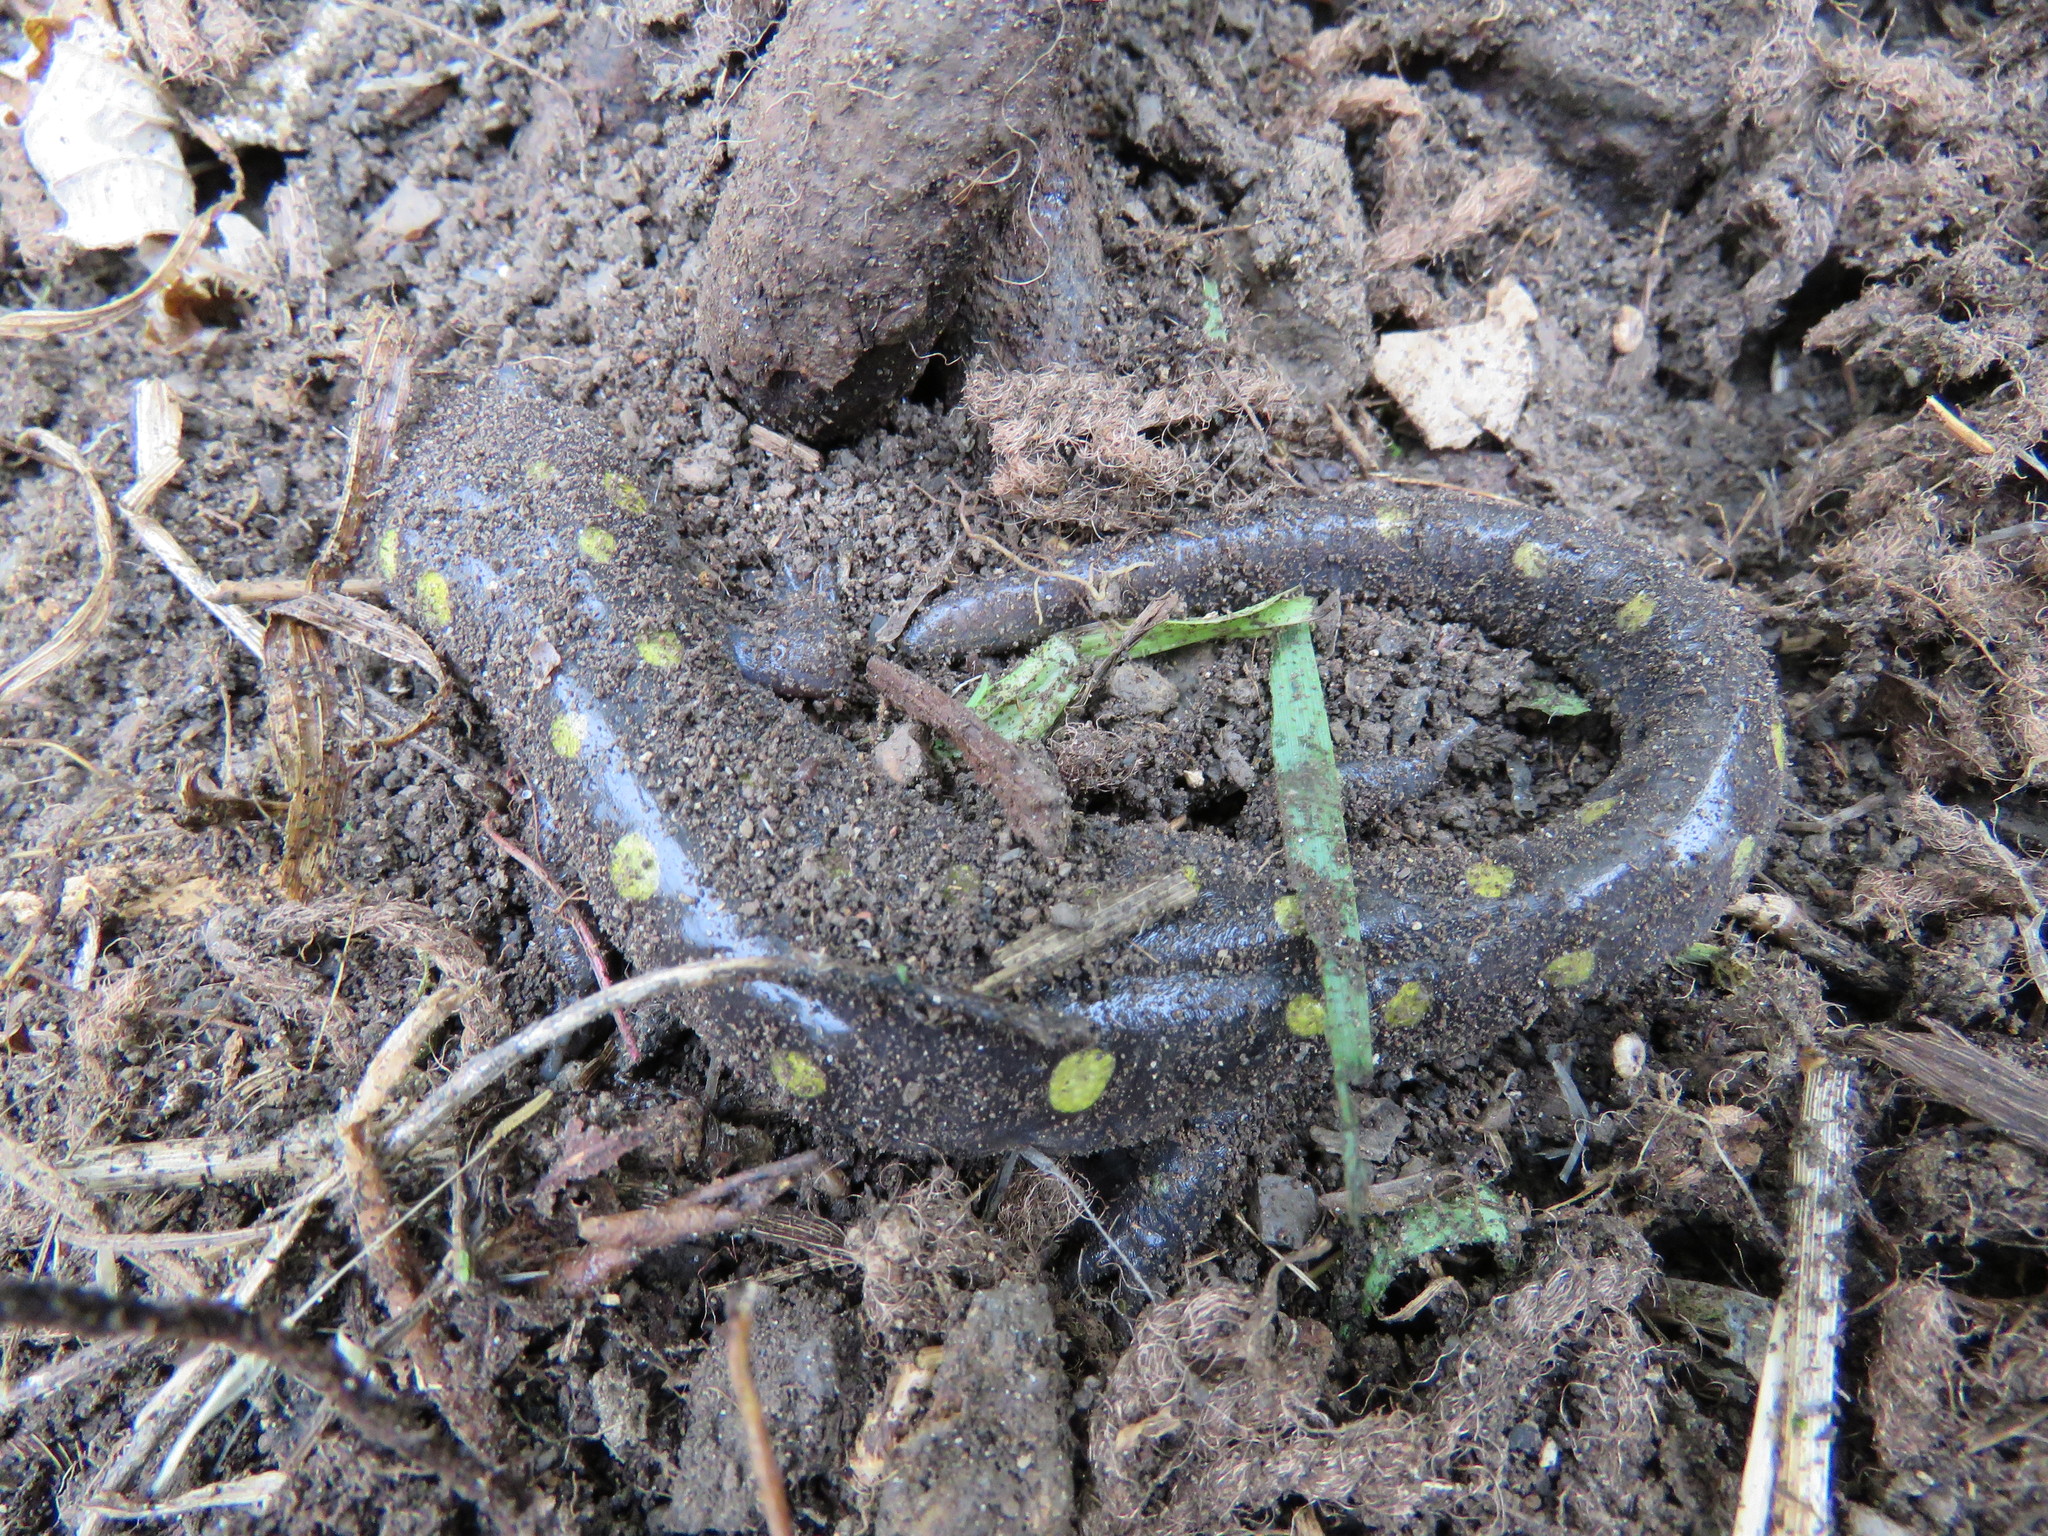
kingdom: Animalia
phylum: Chordata
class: Amphibia
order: Caudata
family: Ambystomatidae
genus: Ambystoma
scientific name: Ambystoma maculatum
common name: Spotted salamander
